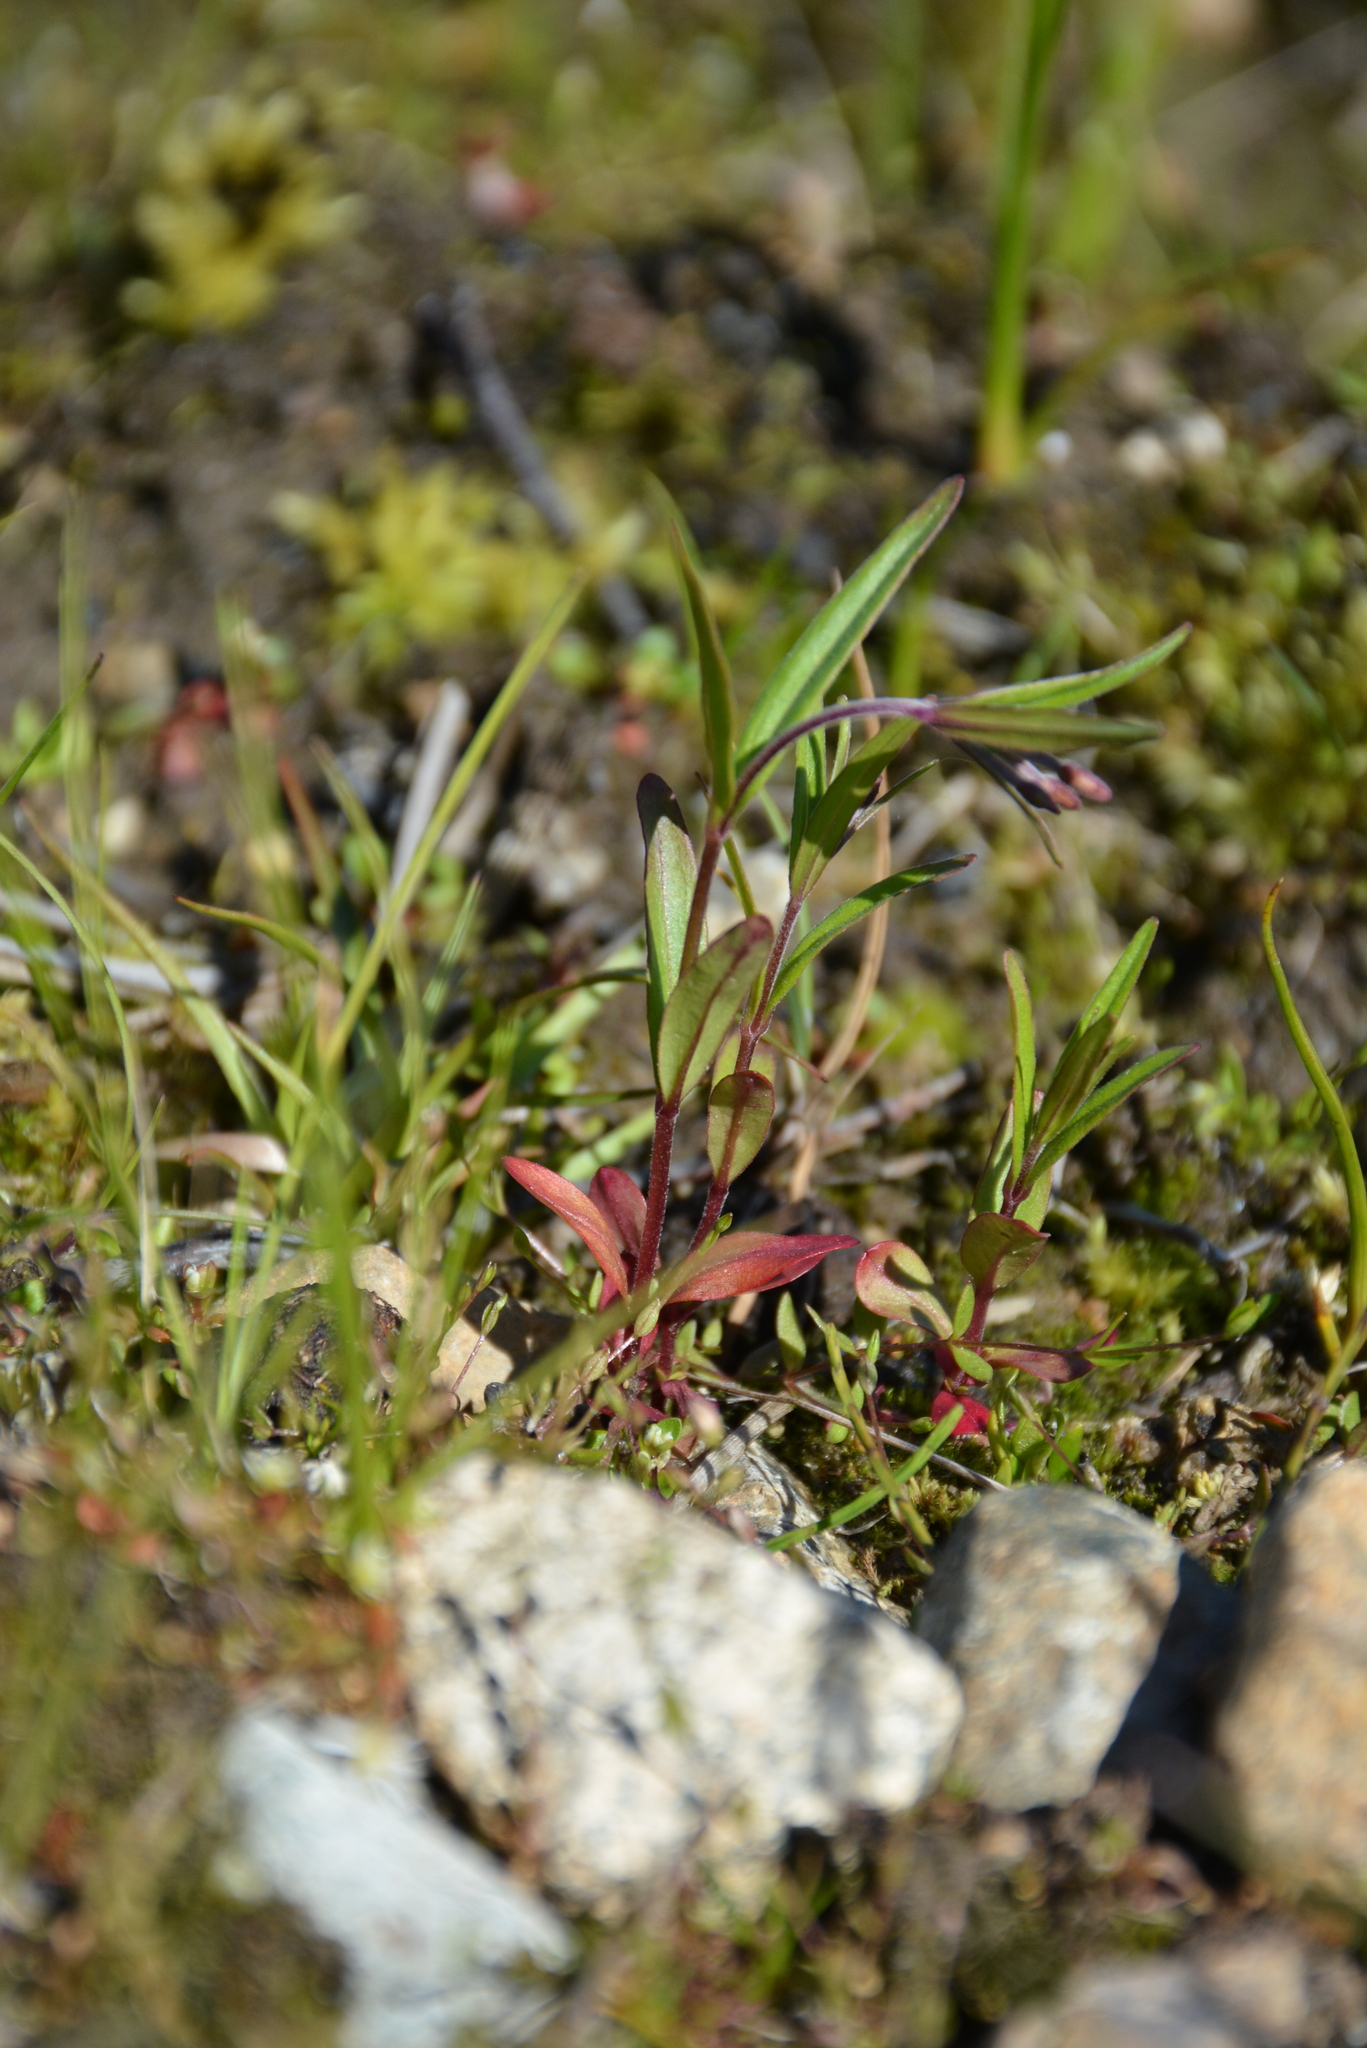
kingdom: Plantae
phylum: Tracheophyta
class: Magnoliopsida
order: Myrtales
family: Onagraceae
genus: Epilobium
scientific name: Epilobium palustre
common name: Marsh willowherb
